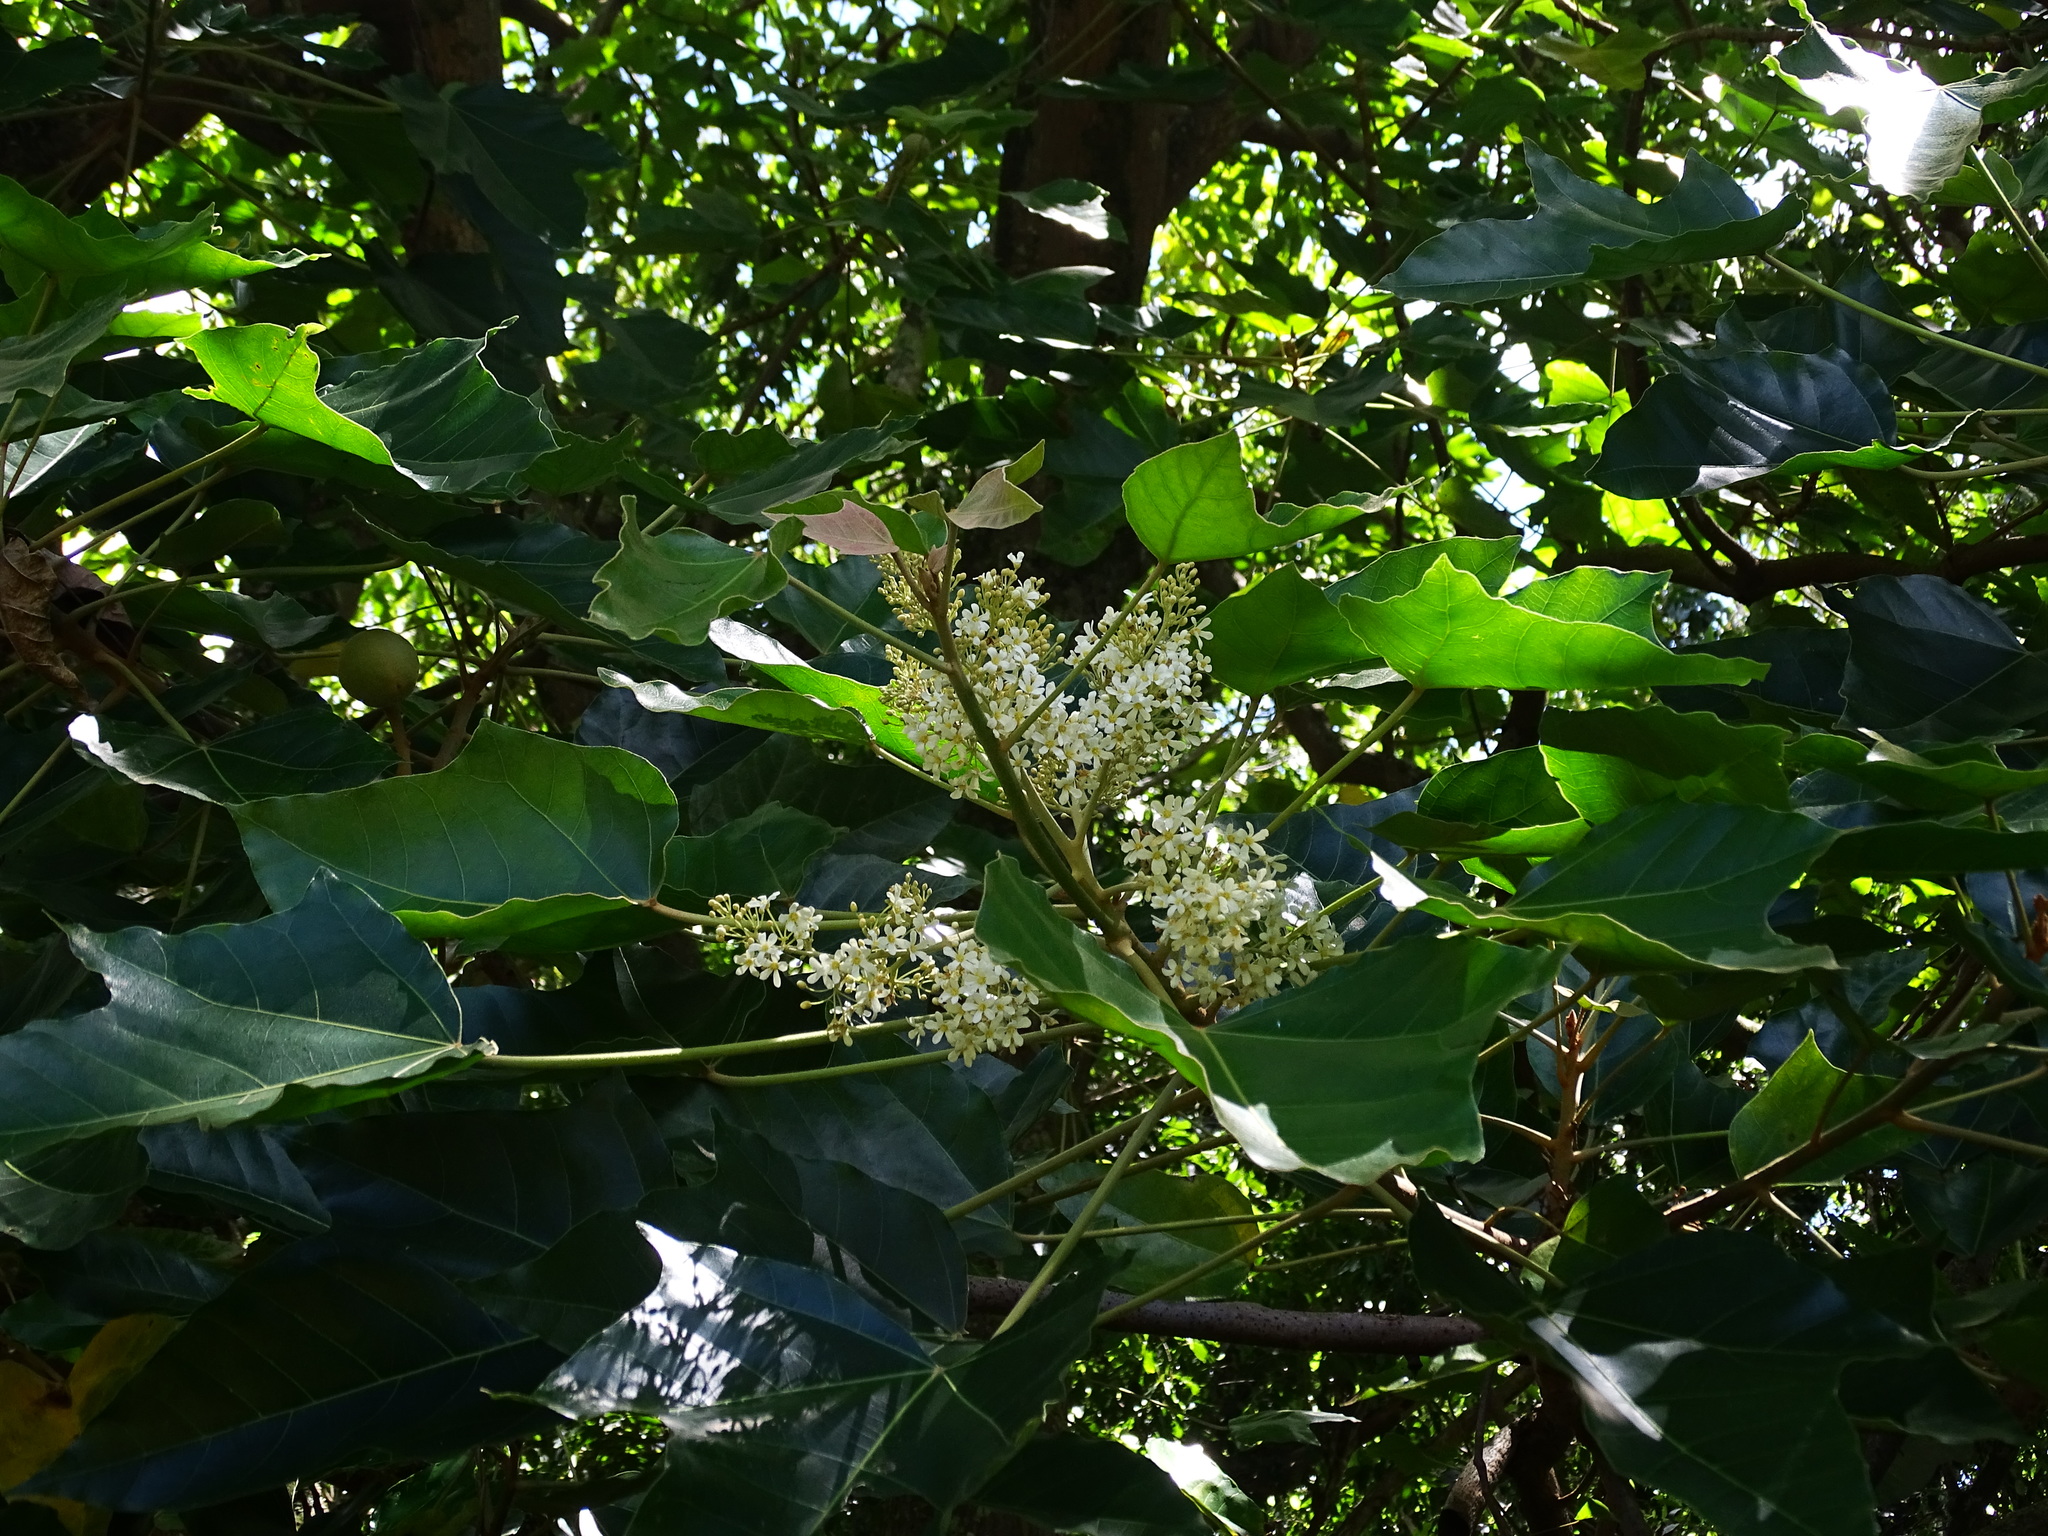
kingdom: Plantae
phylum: Tracheophyta
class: Magnoliopsida
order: Malpighiales
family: Euphorbiaceae
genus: Aleurites
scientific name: Aleurites moluccanus
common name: Candlenut tree
